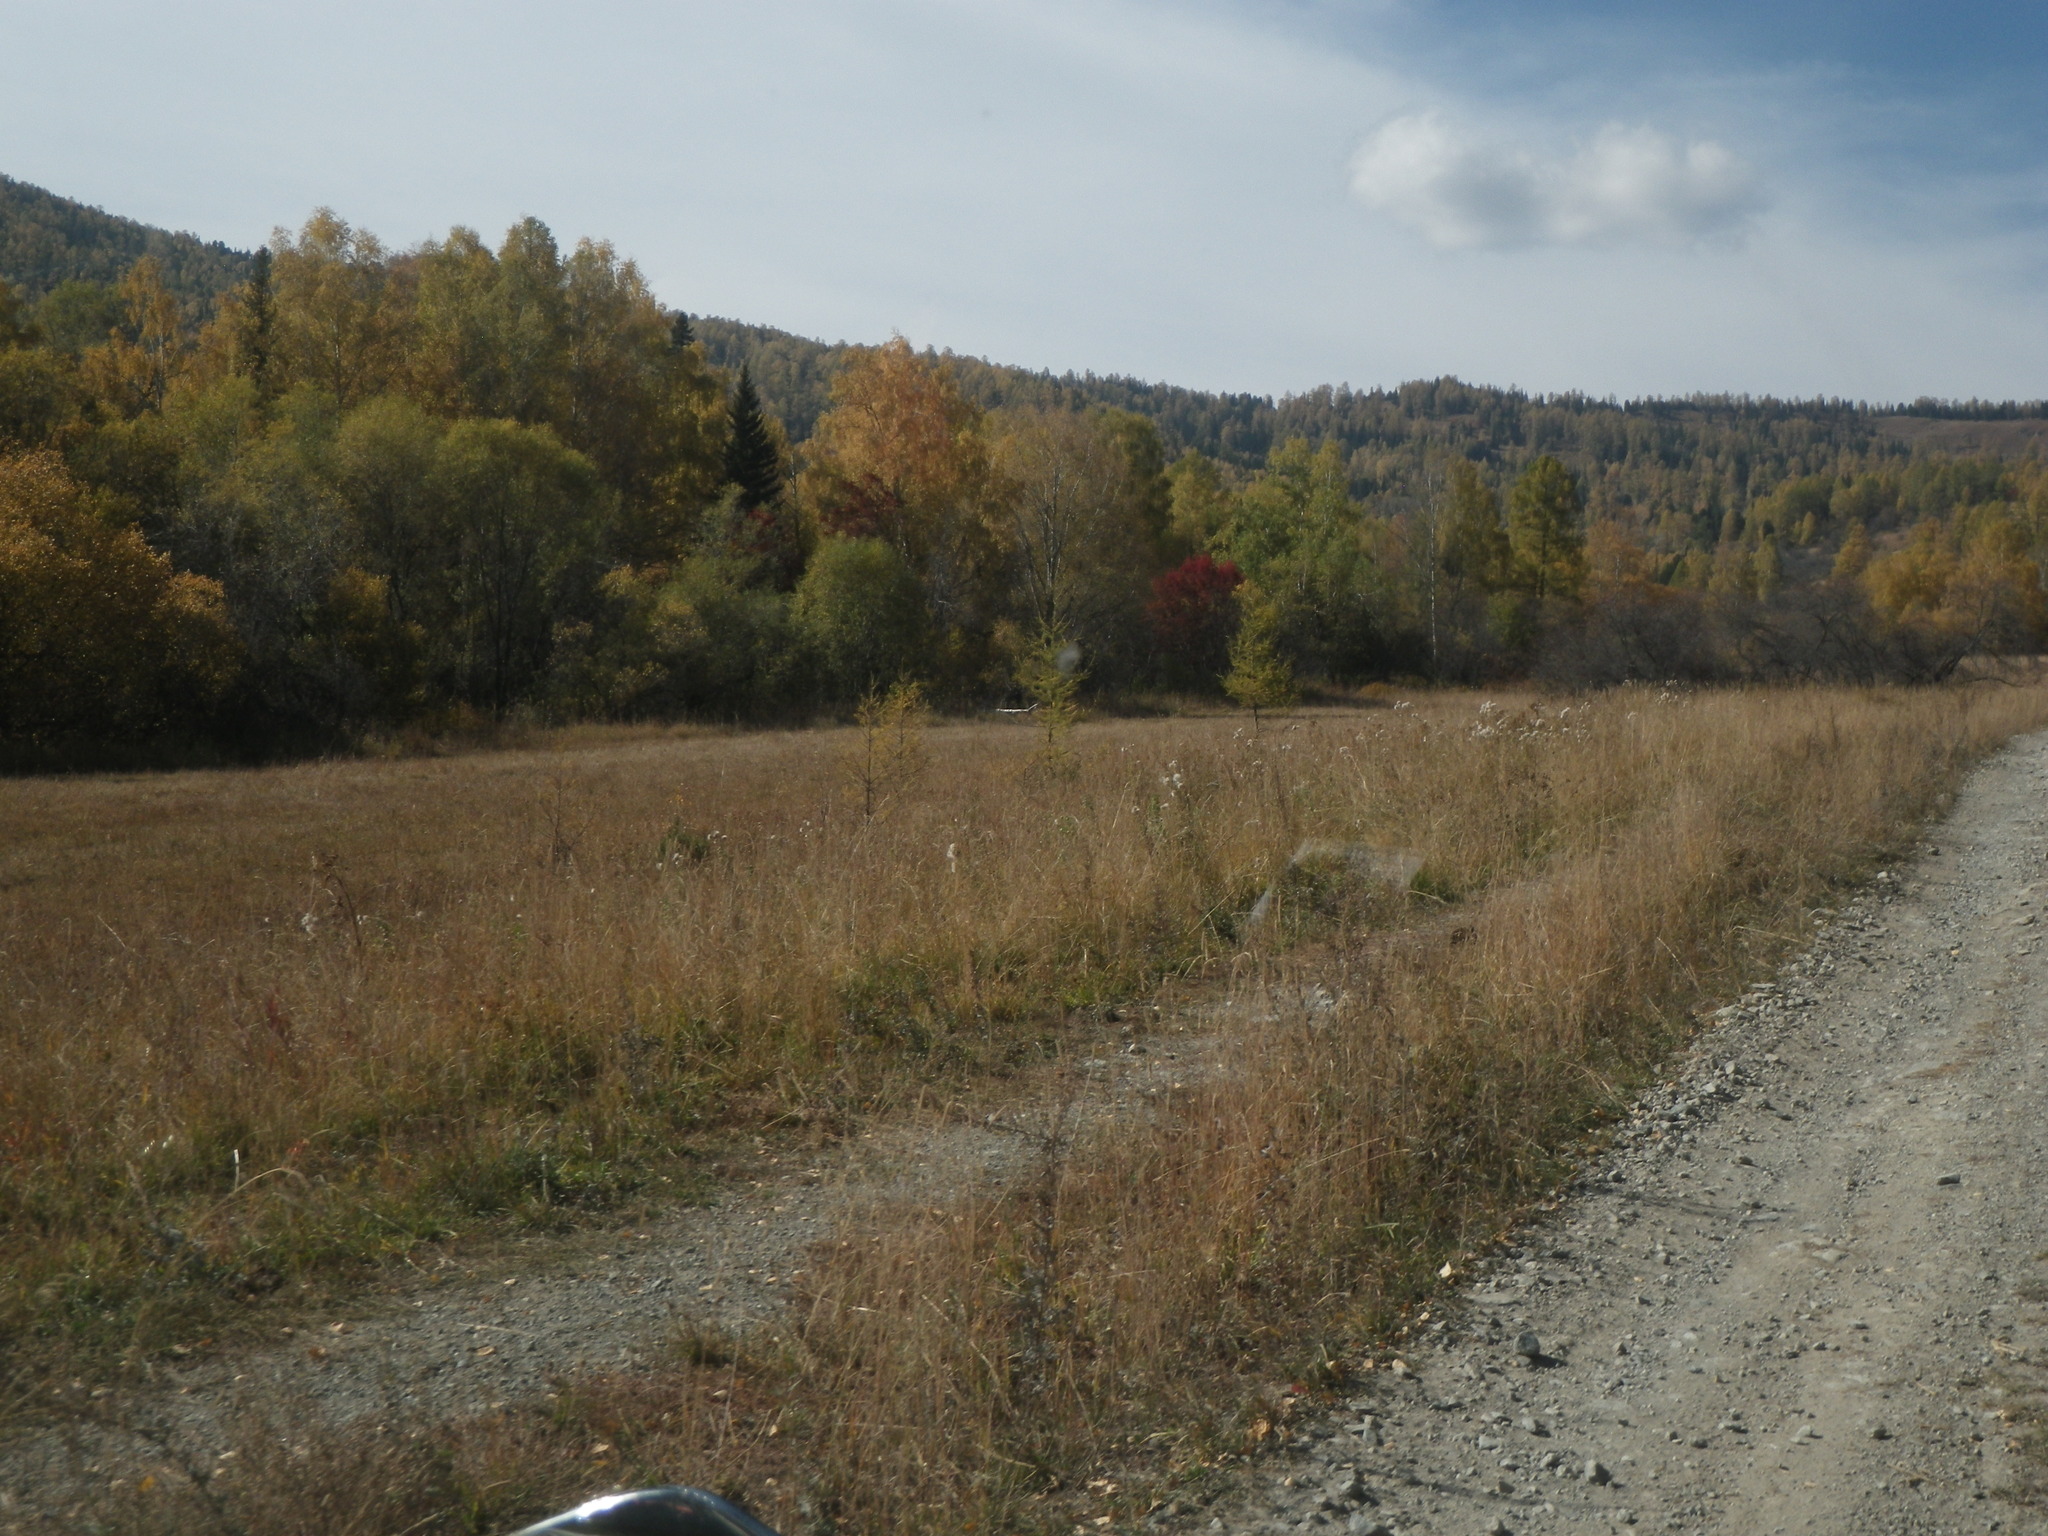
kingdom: Plantae
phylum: Tracheophyta
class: Pinopsida
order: Pinales
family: Pinaceae
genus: Larix
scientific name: Larix sibirica
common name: Siberian larch
